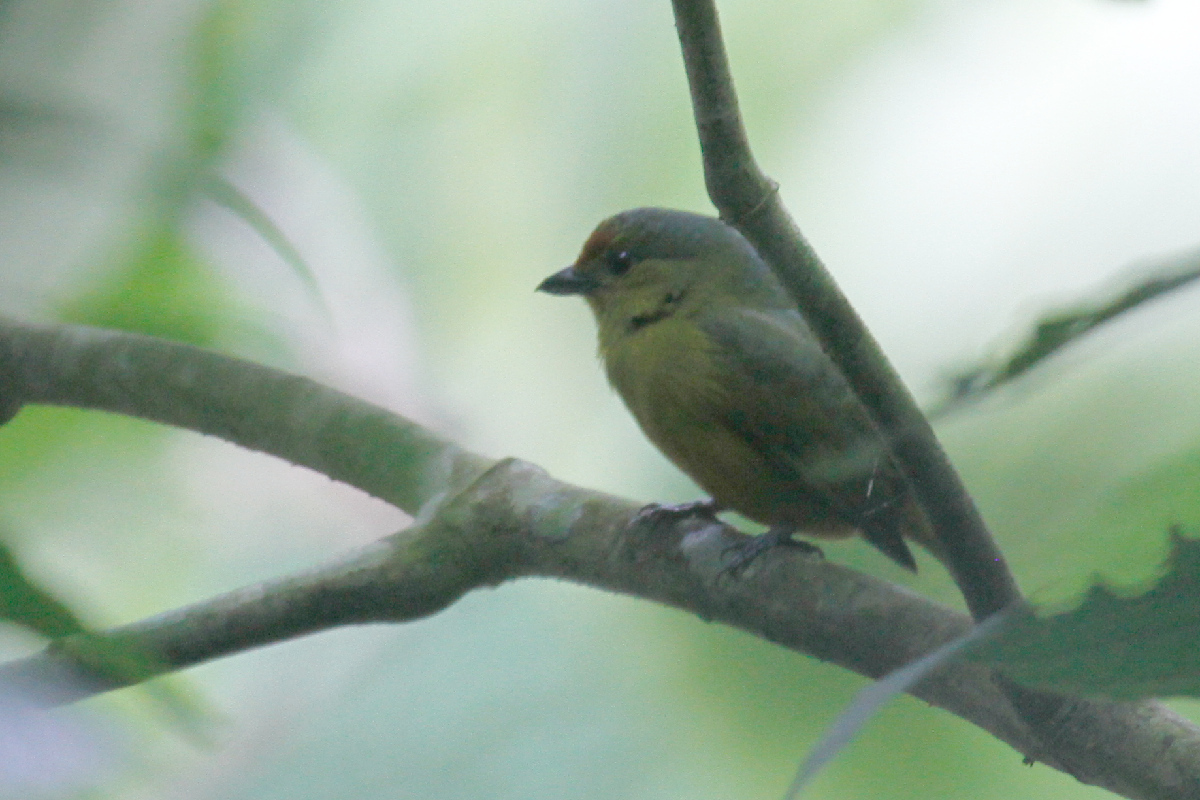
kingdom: Animalia
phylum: Chordata
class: Aves
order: Passeriformes
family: Fringillidae
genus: Euphonia
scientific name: Euphonia imitans
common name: Spot-crowned euphonia
